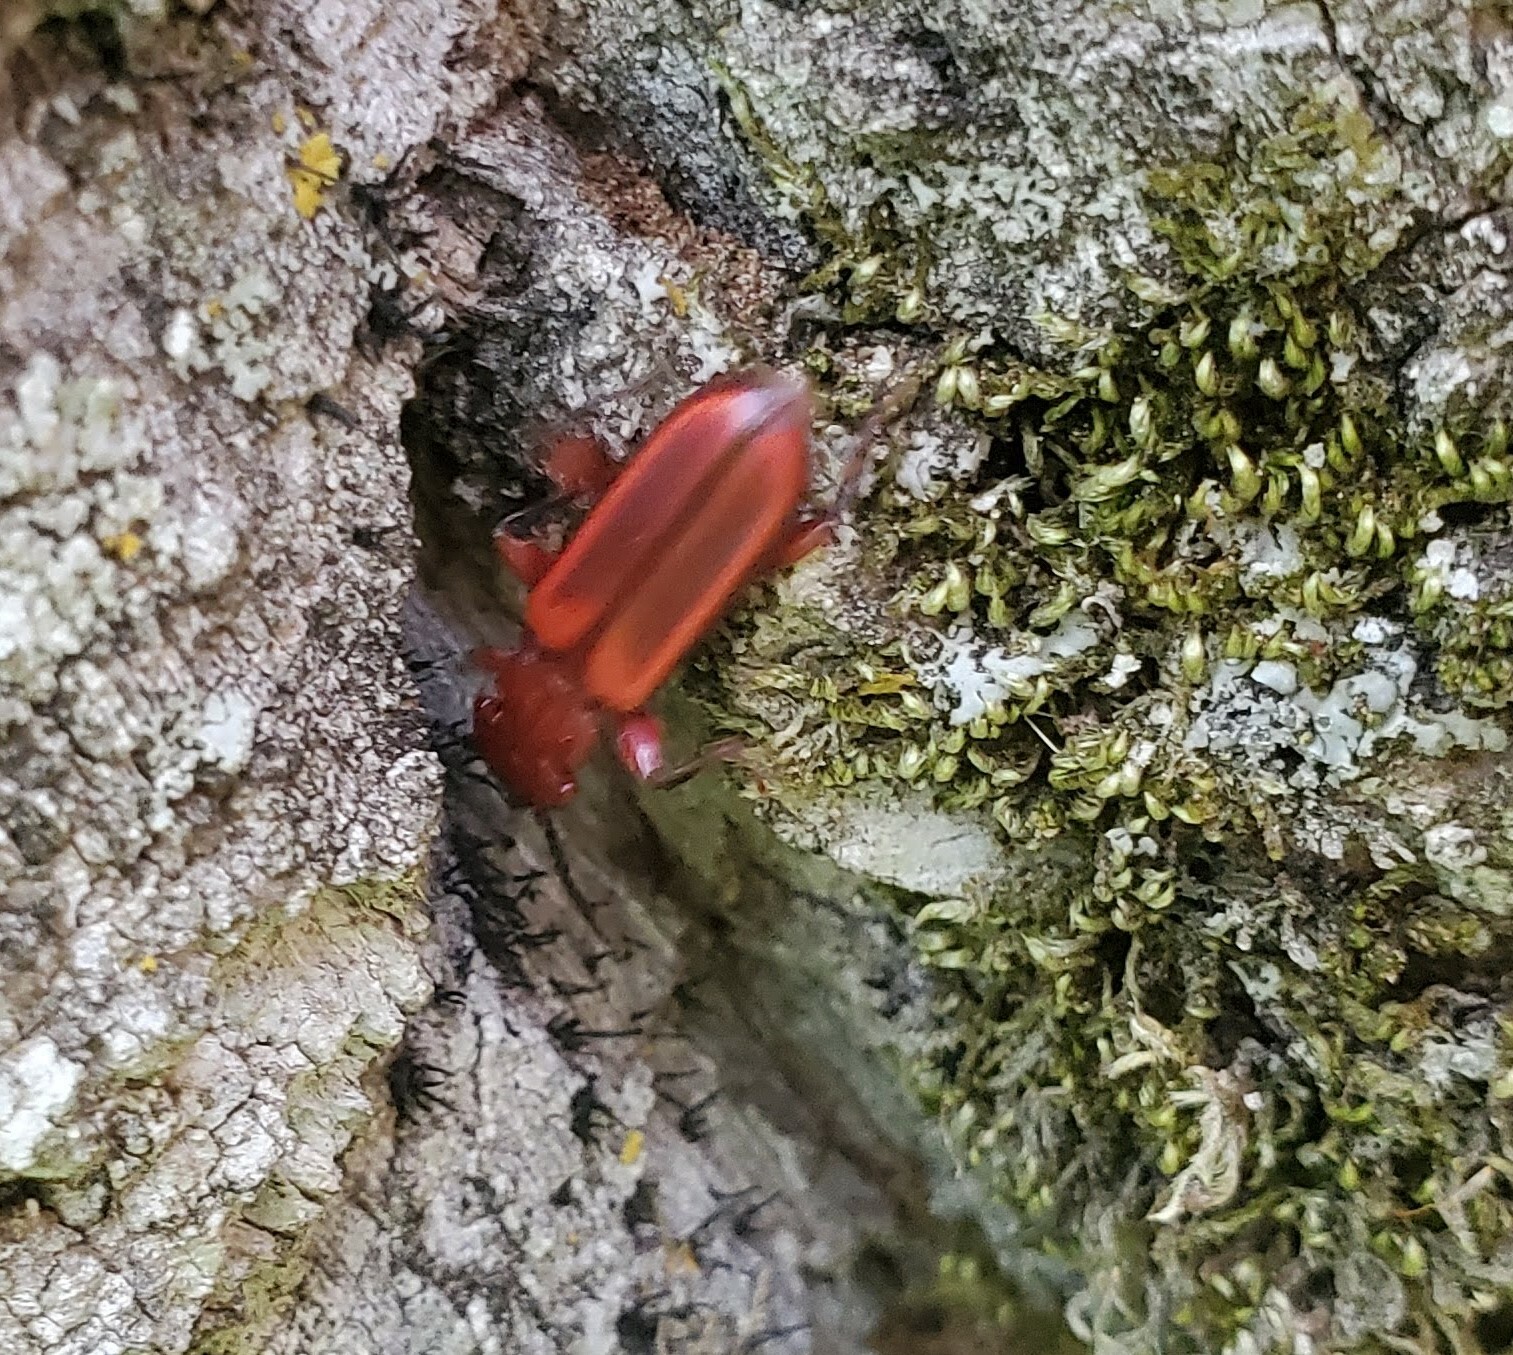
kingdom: Animalia
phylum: Arthropoda
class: Insecta
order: Coleoptera
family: Cucujidae
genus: Cucujus
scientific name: Cucujus clavipes
